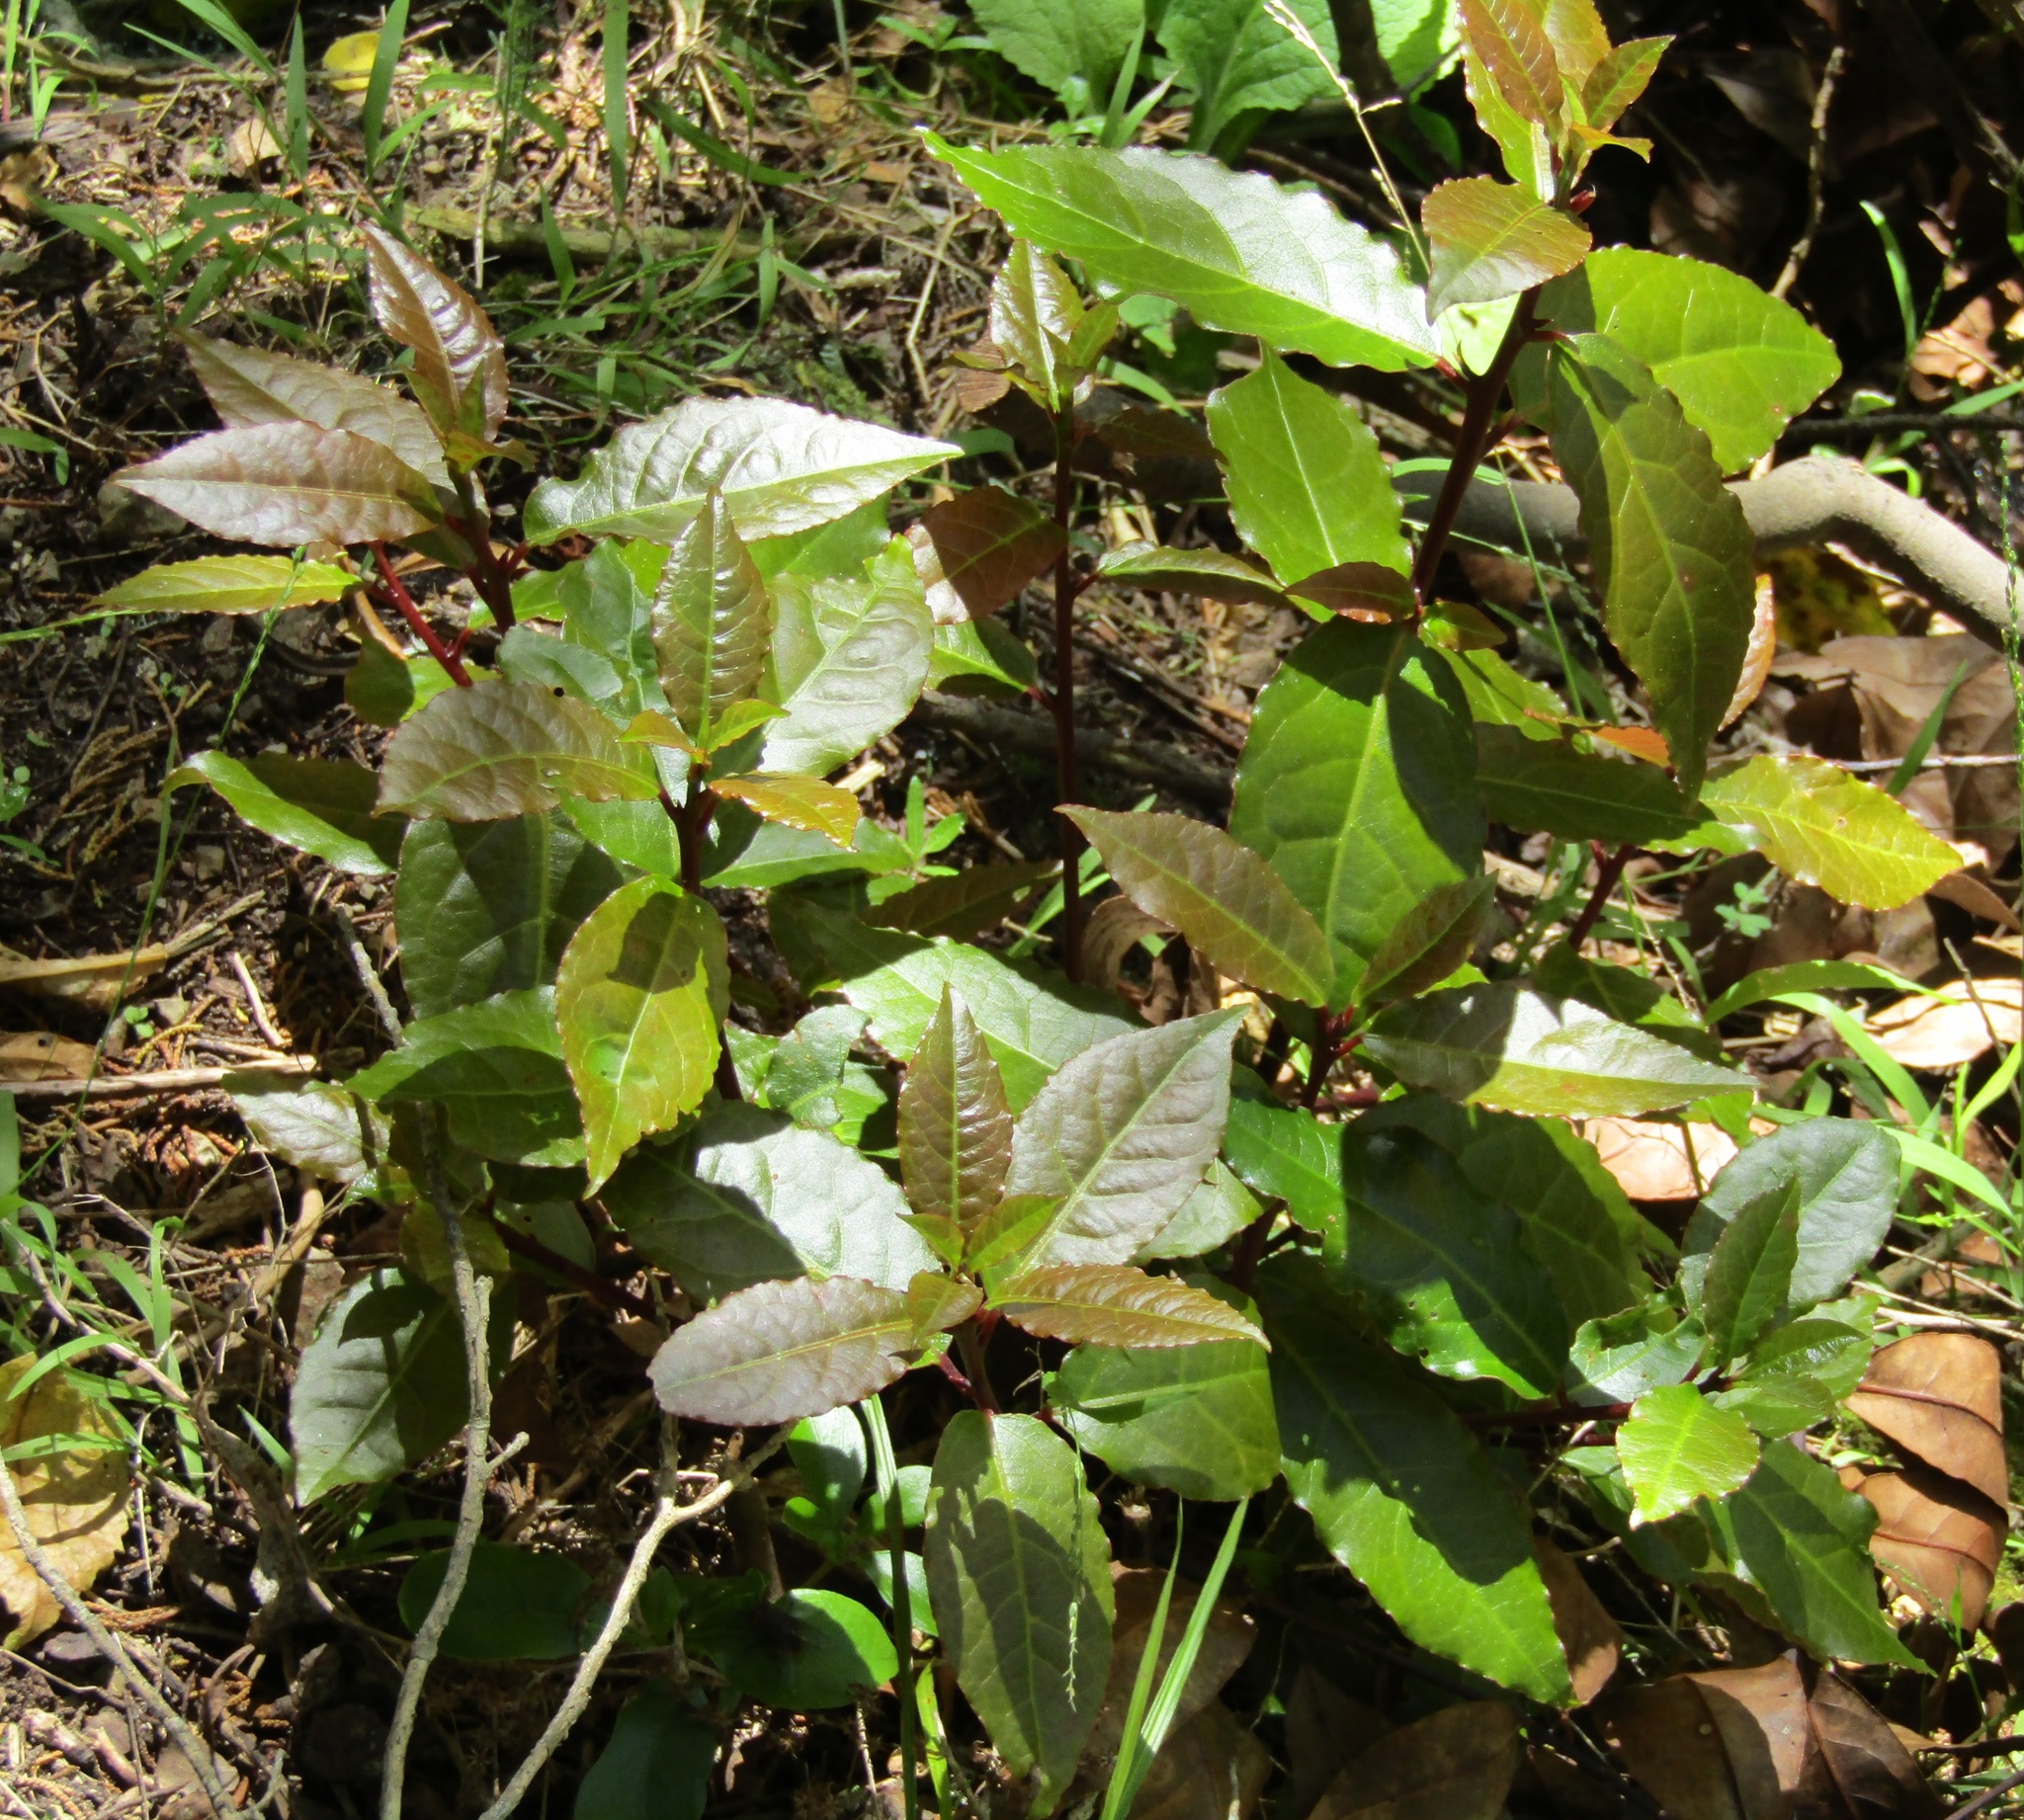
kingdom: Plantae
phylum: Tracheophyta
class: Magnoliopsida
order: Laurales
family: Lauraceae
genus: Laurus
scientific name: Laurus nobilis
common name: Bay
